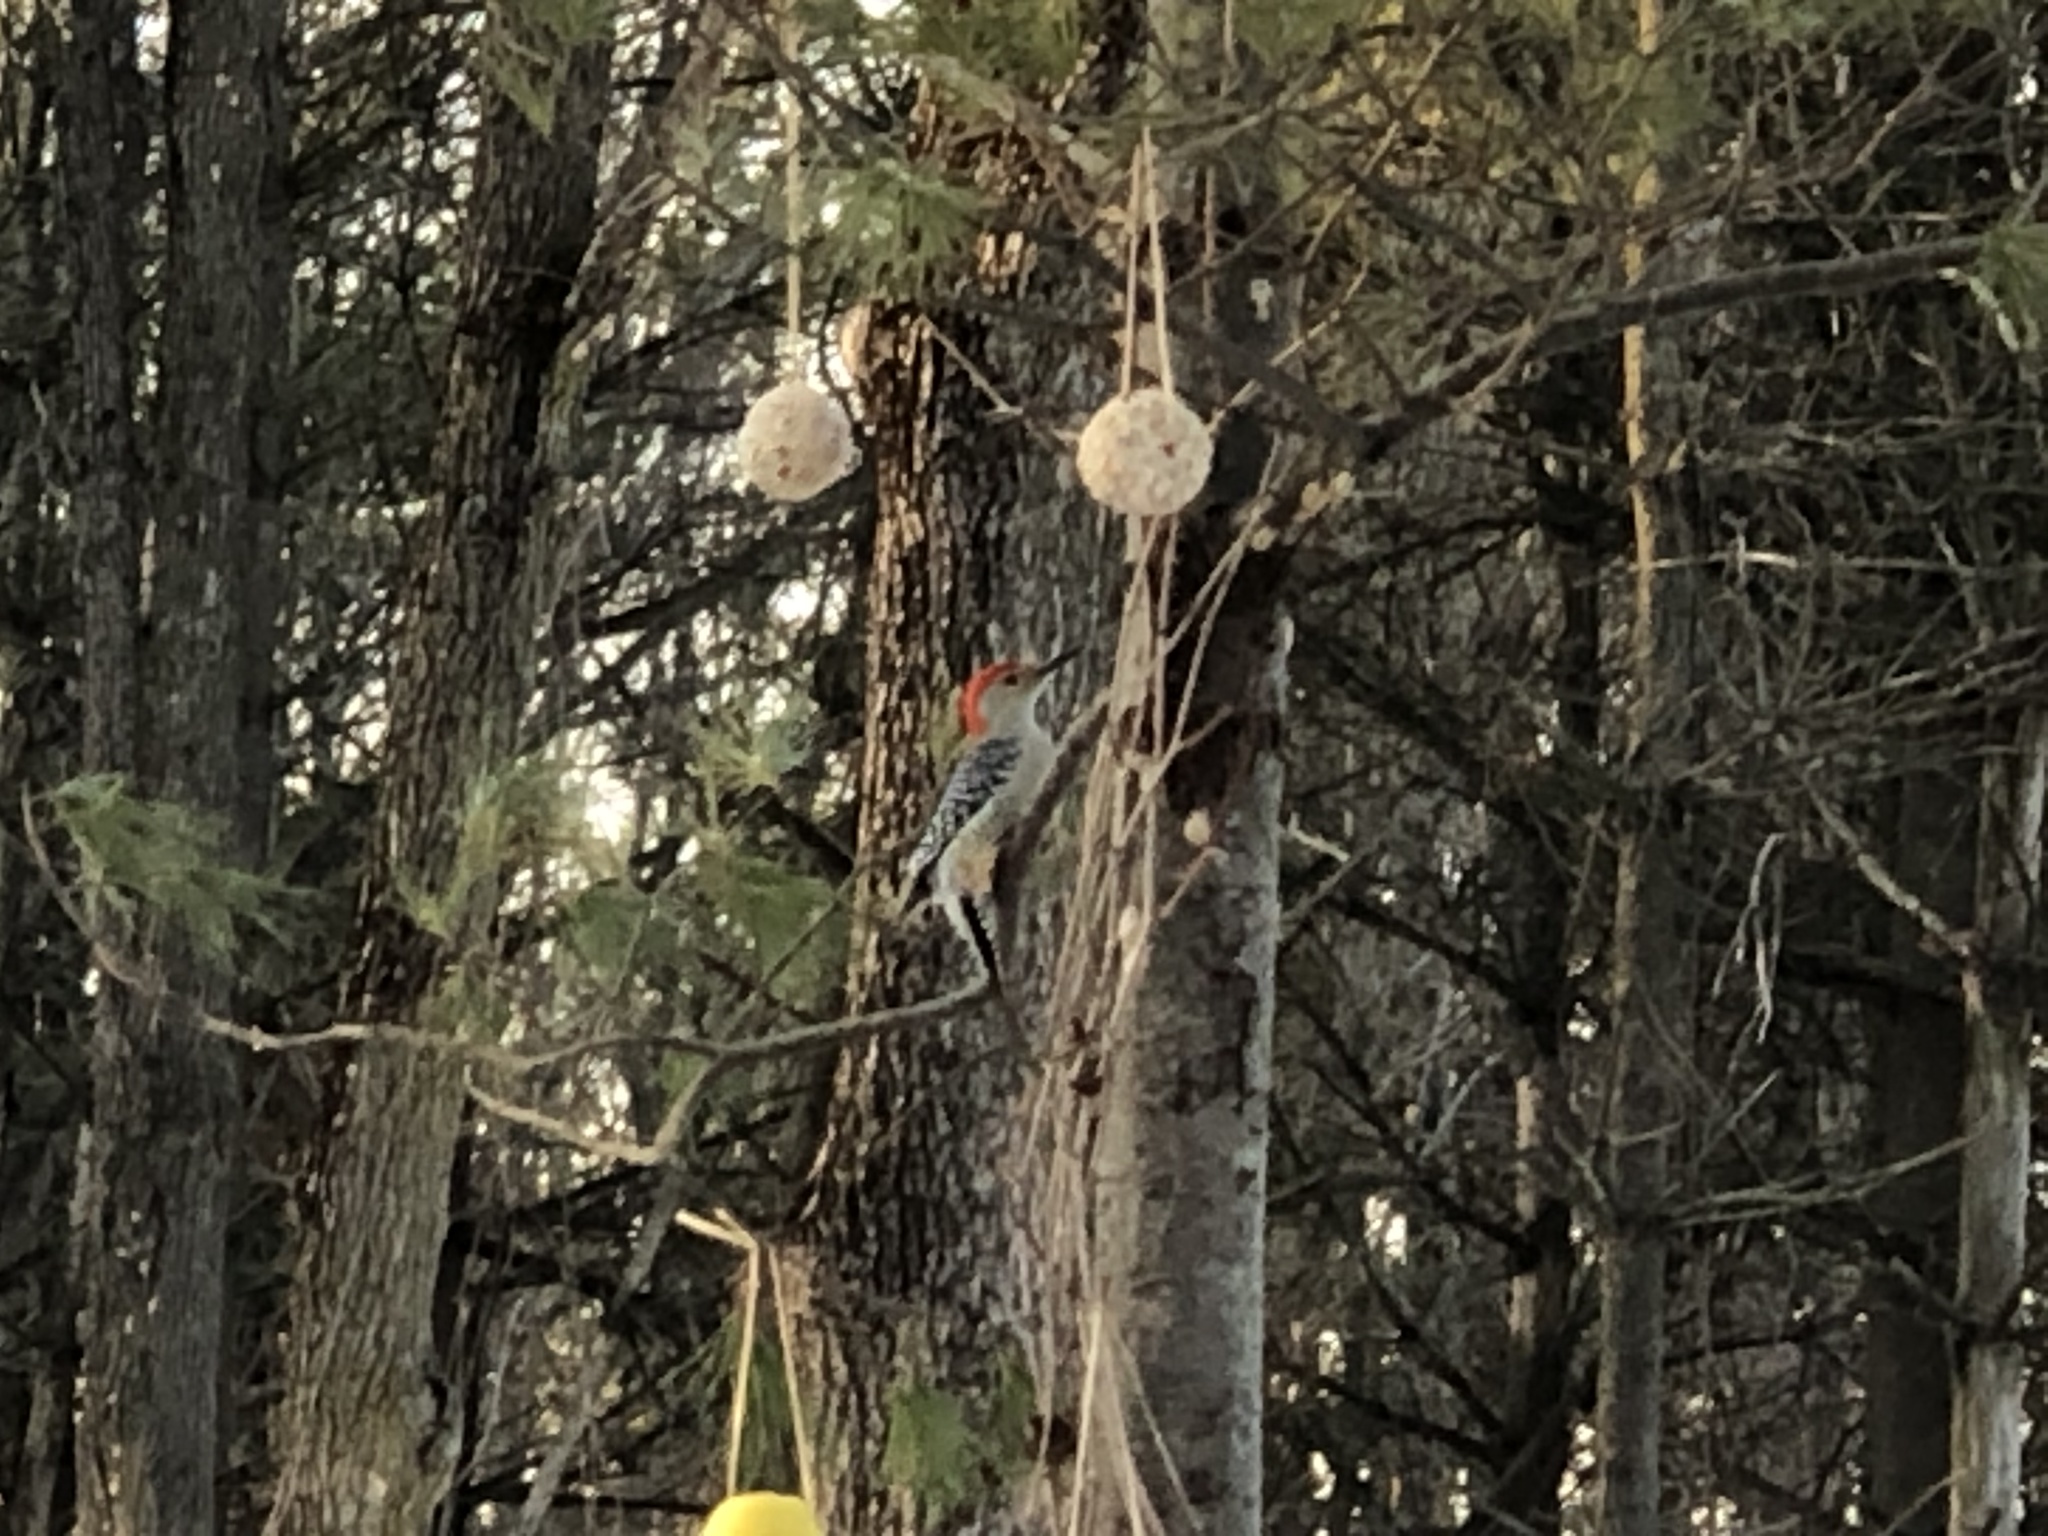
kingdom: Animalia
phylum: Chordata
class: Aves
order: Piciformes
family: Picidae
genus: Melanerpes
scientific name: Melanerpes carolinus
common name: Red-bellied woodpecker
